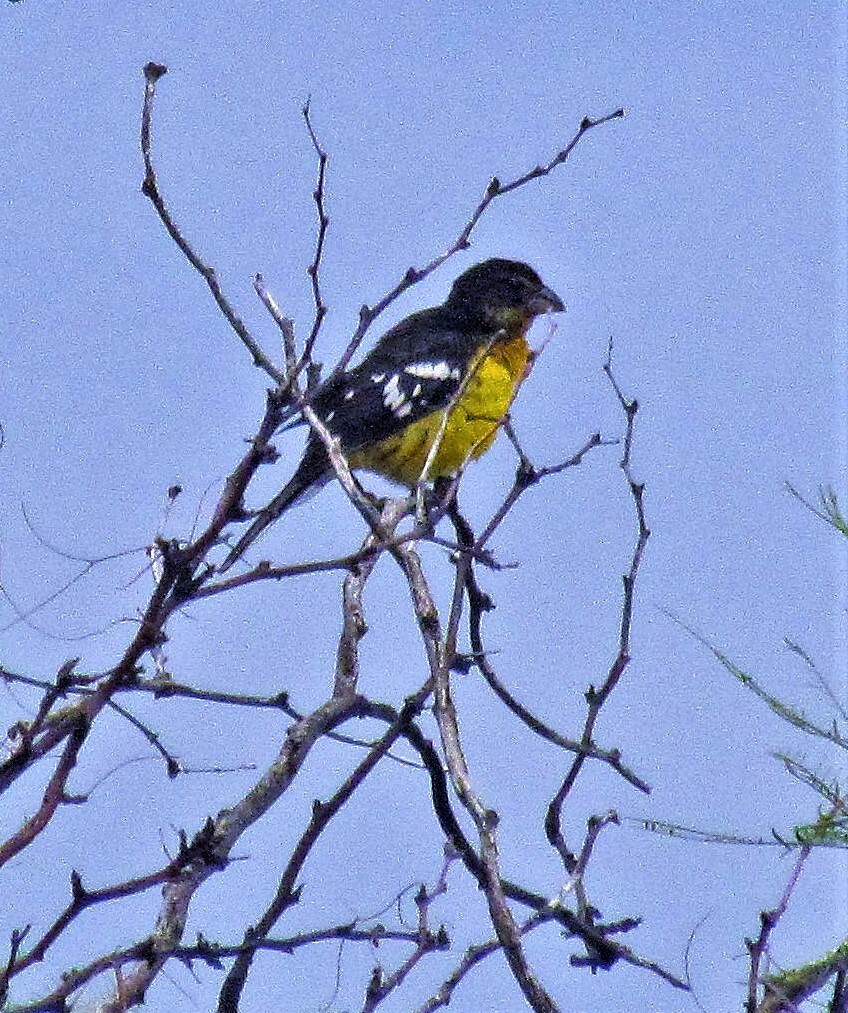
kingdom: Animalia
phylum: Chordata
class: Aves
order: Passeriformes
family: Cardinalidae
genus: Pheucticus
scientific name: Pheucticus aureoventris
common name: Black-backed grosbeak
